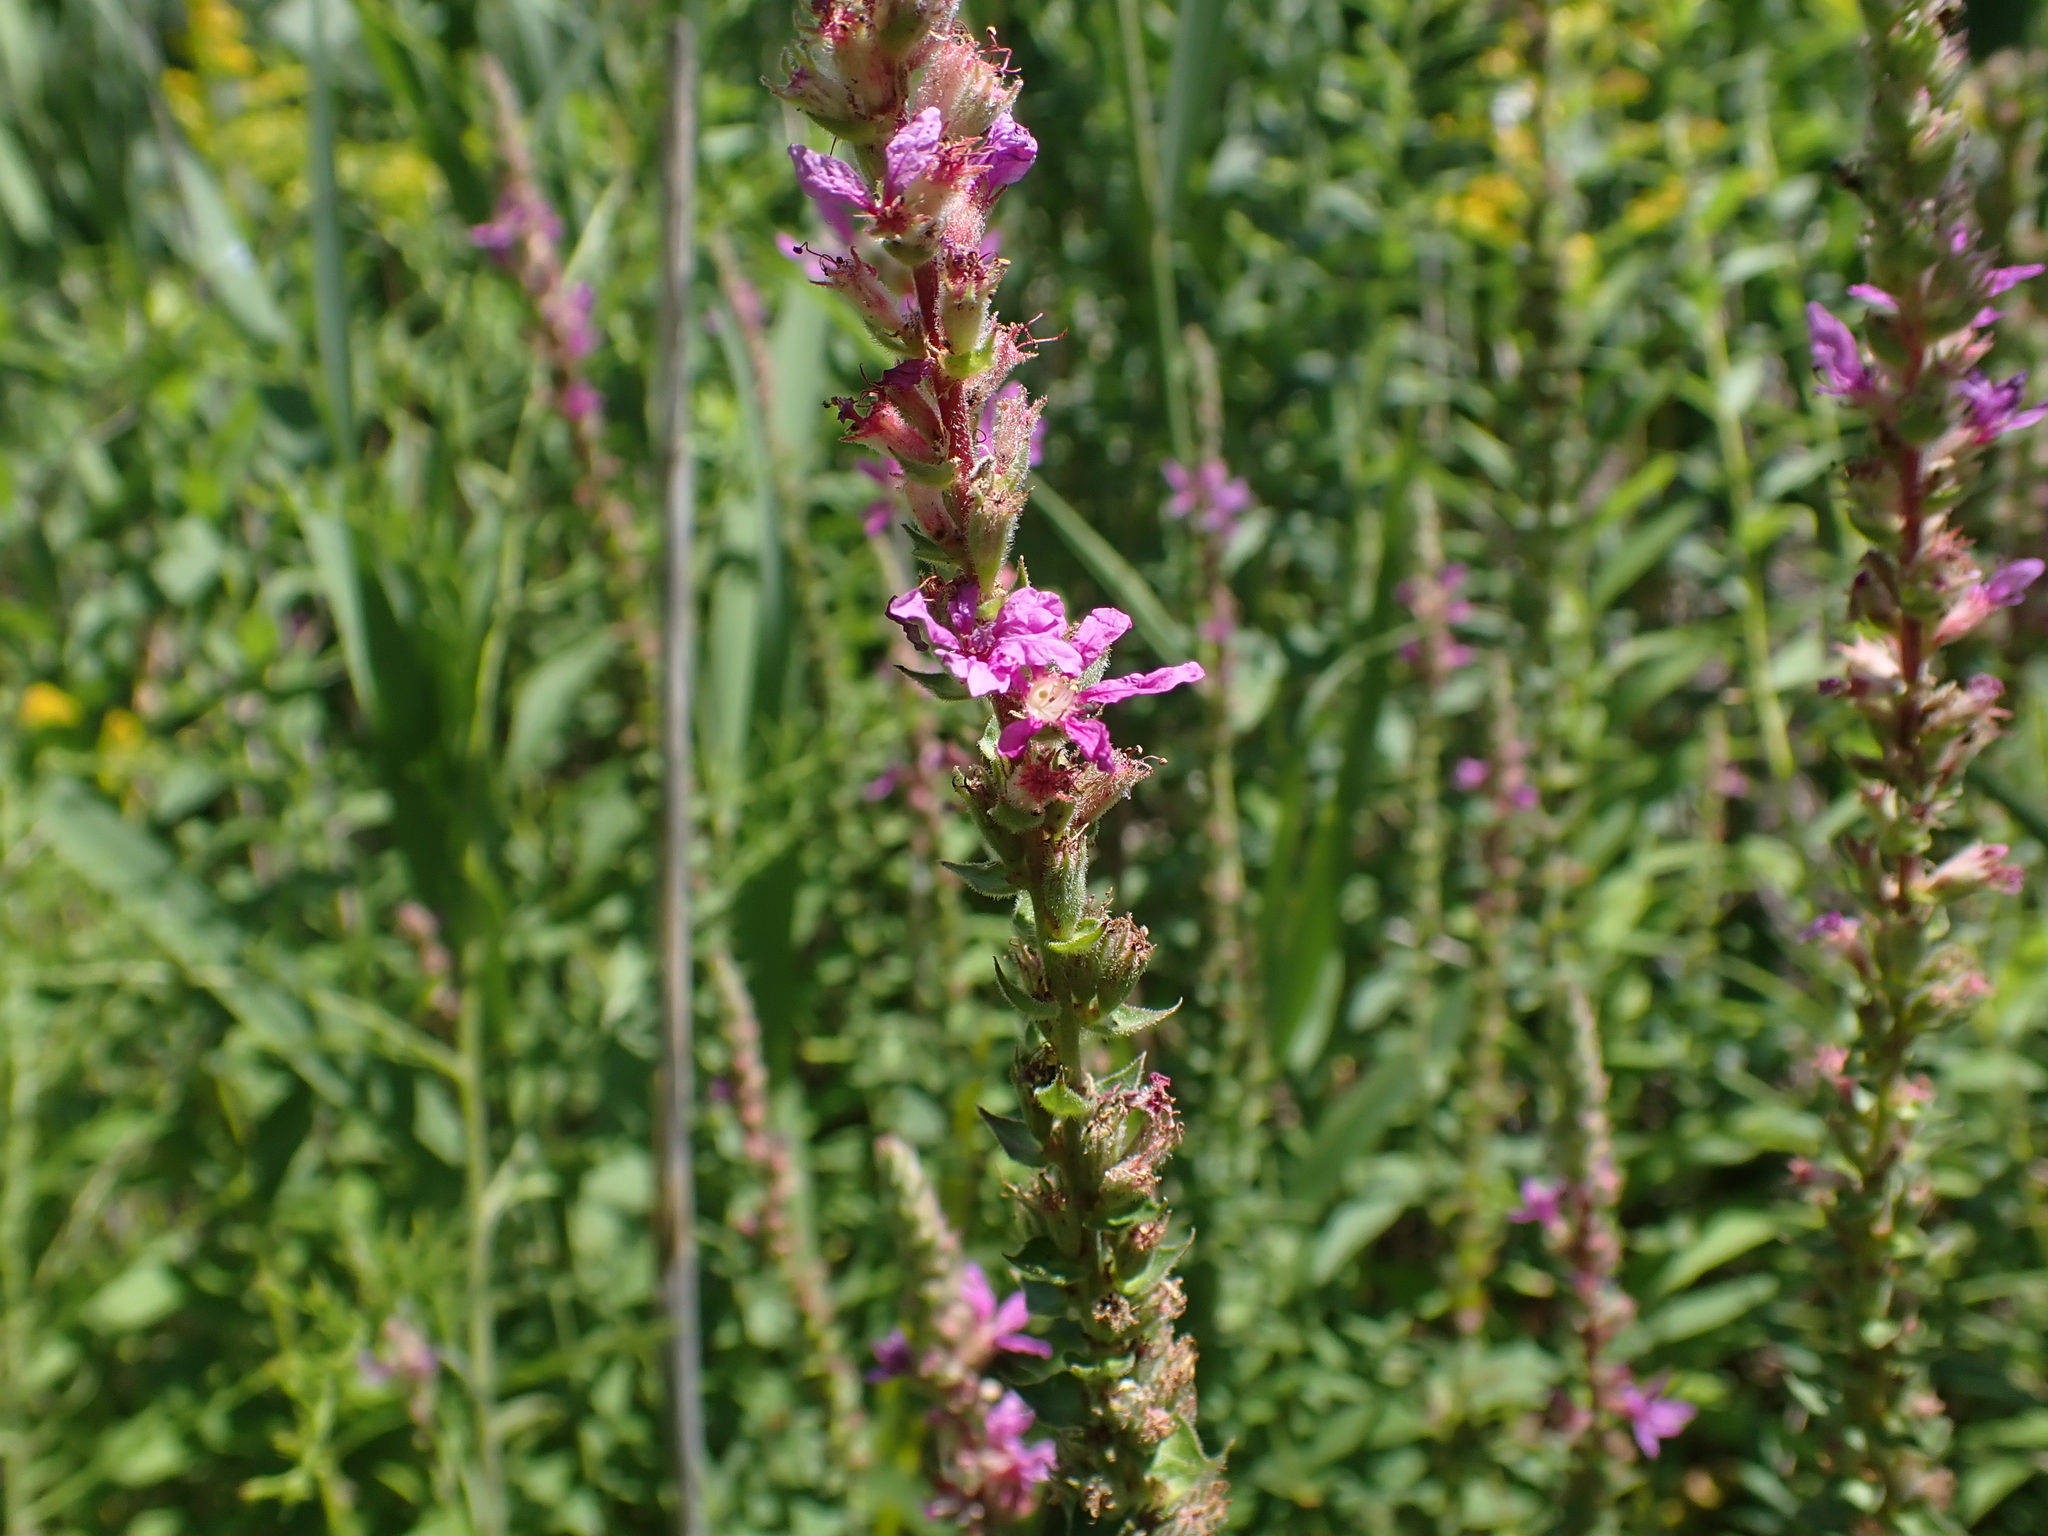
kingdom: Plantae
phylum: Tracheophyta
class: Magnoliopsida
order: Myrtales
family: Lythraceae
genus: Lythrum
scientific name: Lythrum salicaria
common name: Purple loosestrife
